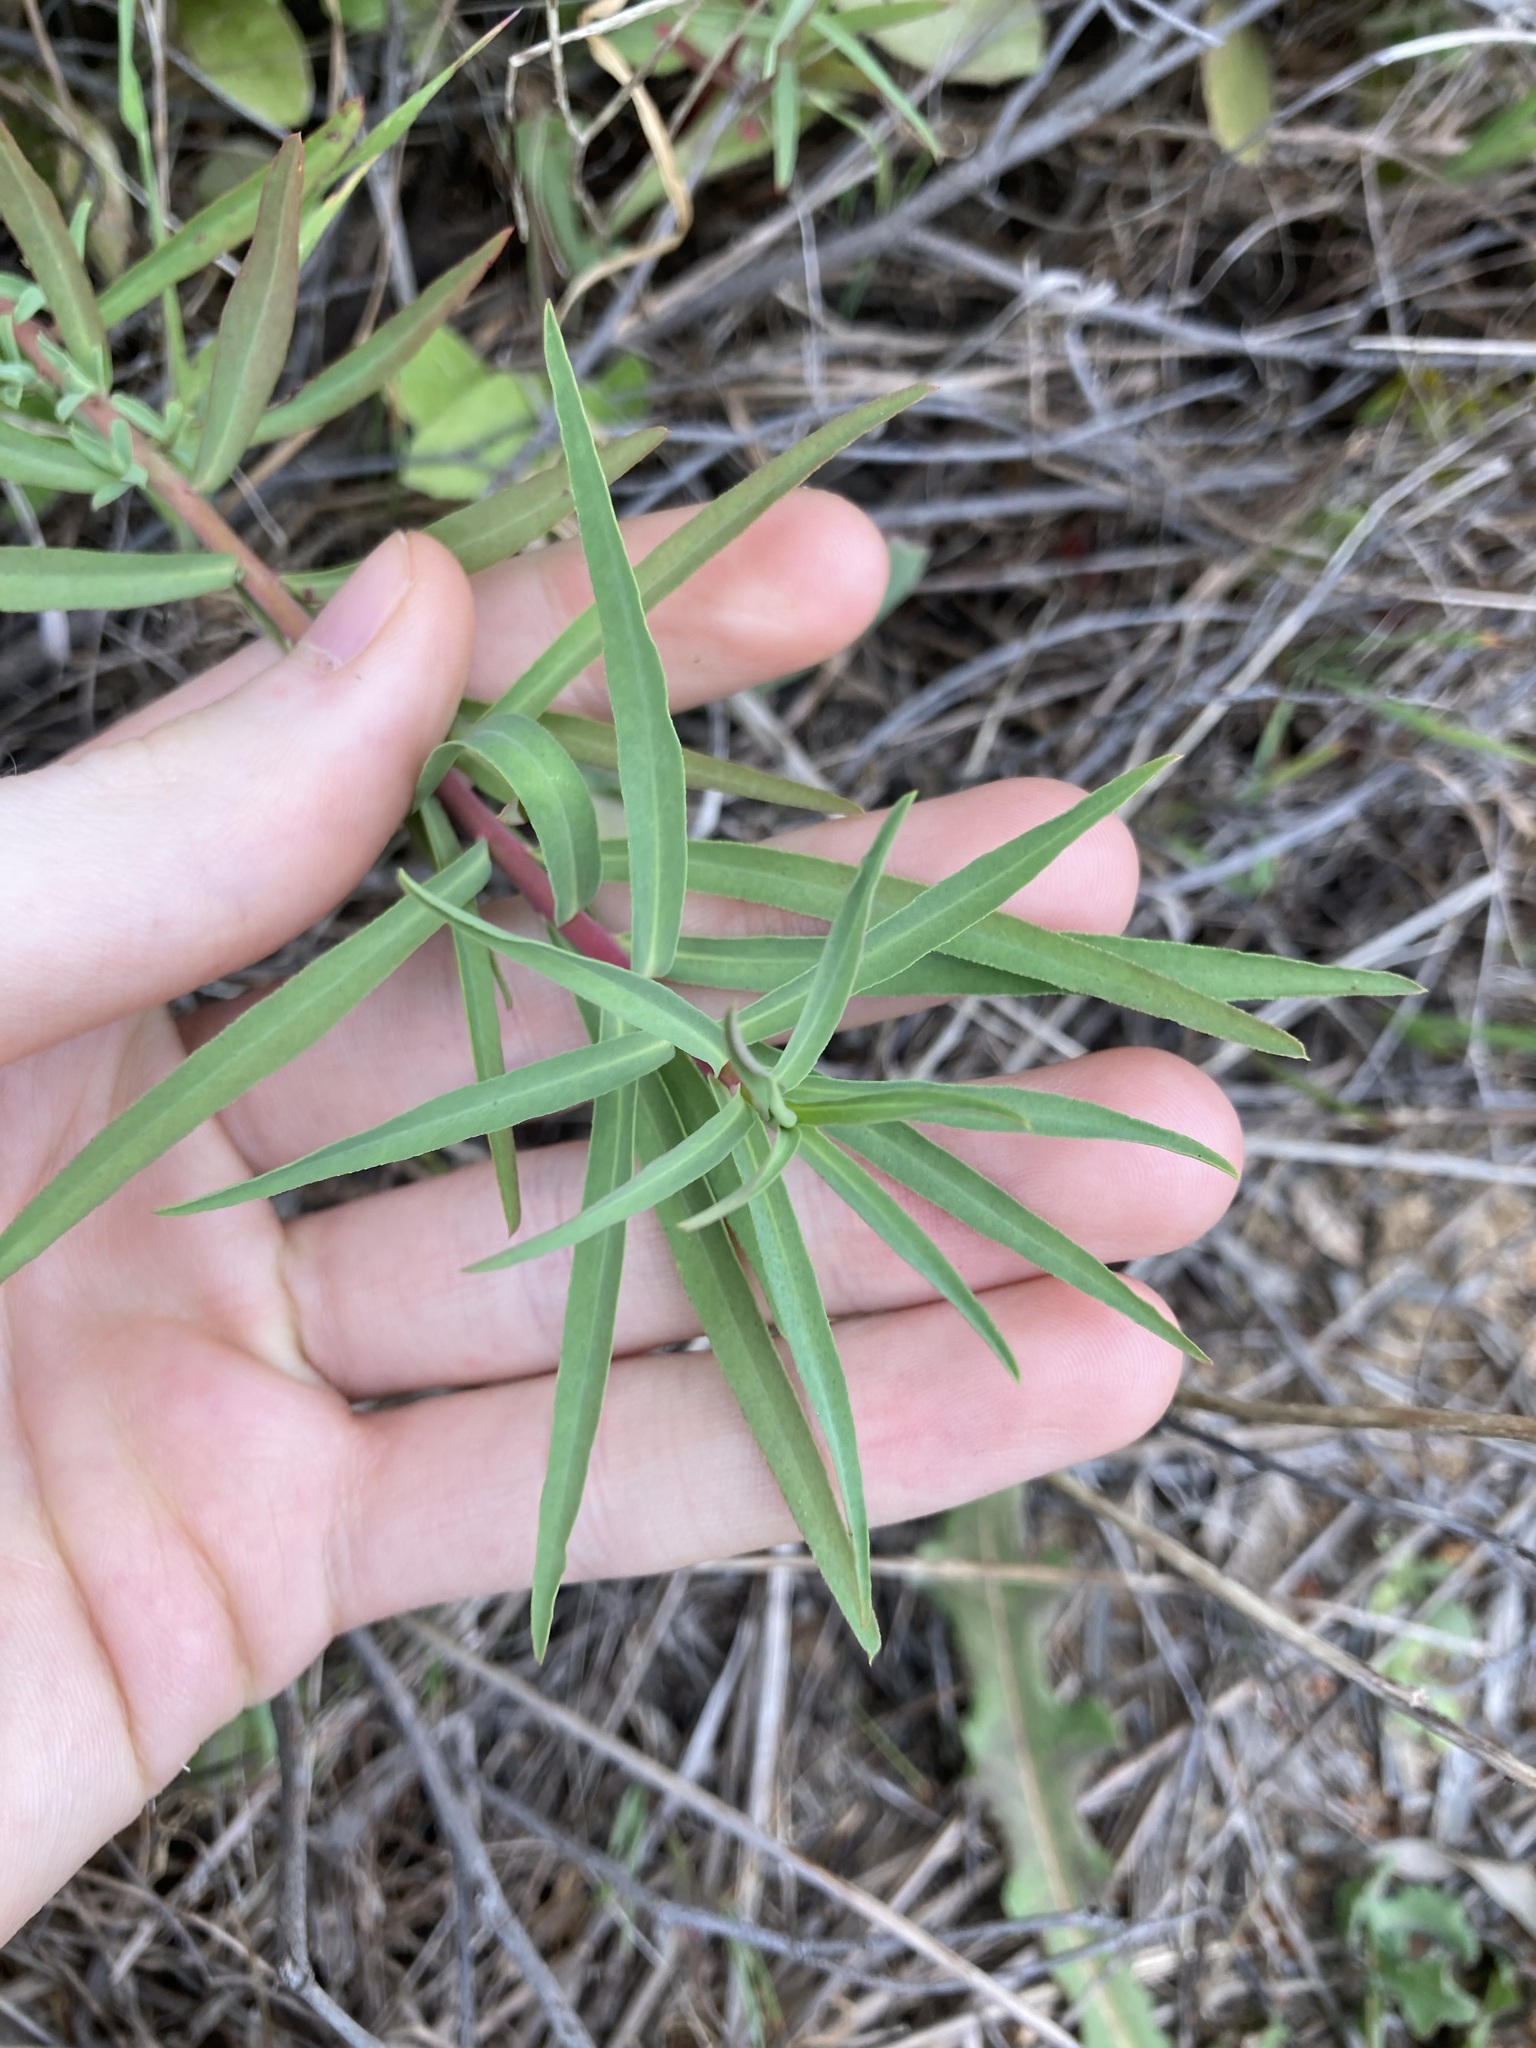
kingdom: Plantae
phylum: Tracheophyta
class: Magnoliopsida
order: Malpighiales
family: Euphorbiaceae
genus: Euphorbia
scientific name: Euphorbia terracina
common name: Geraldton carnation weed
